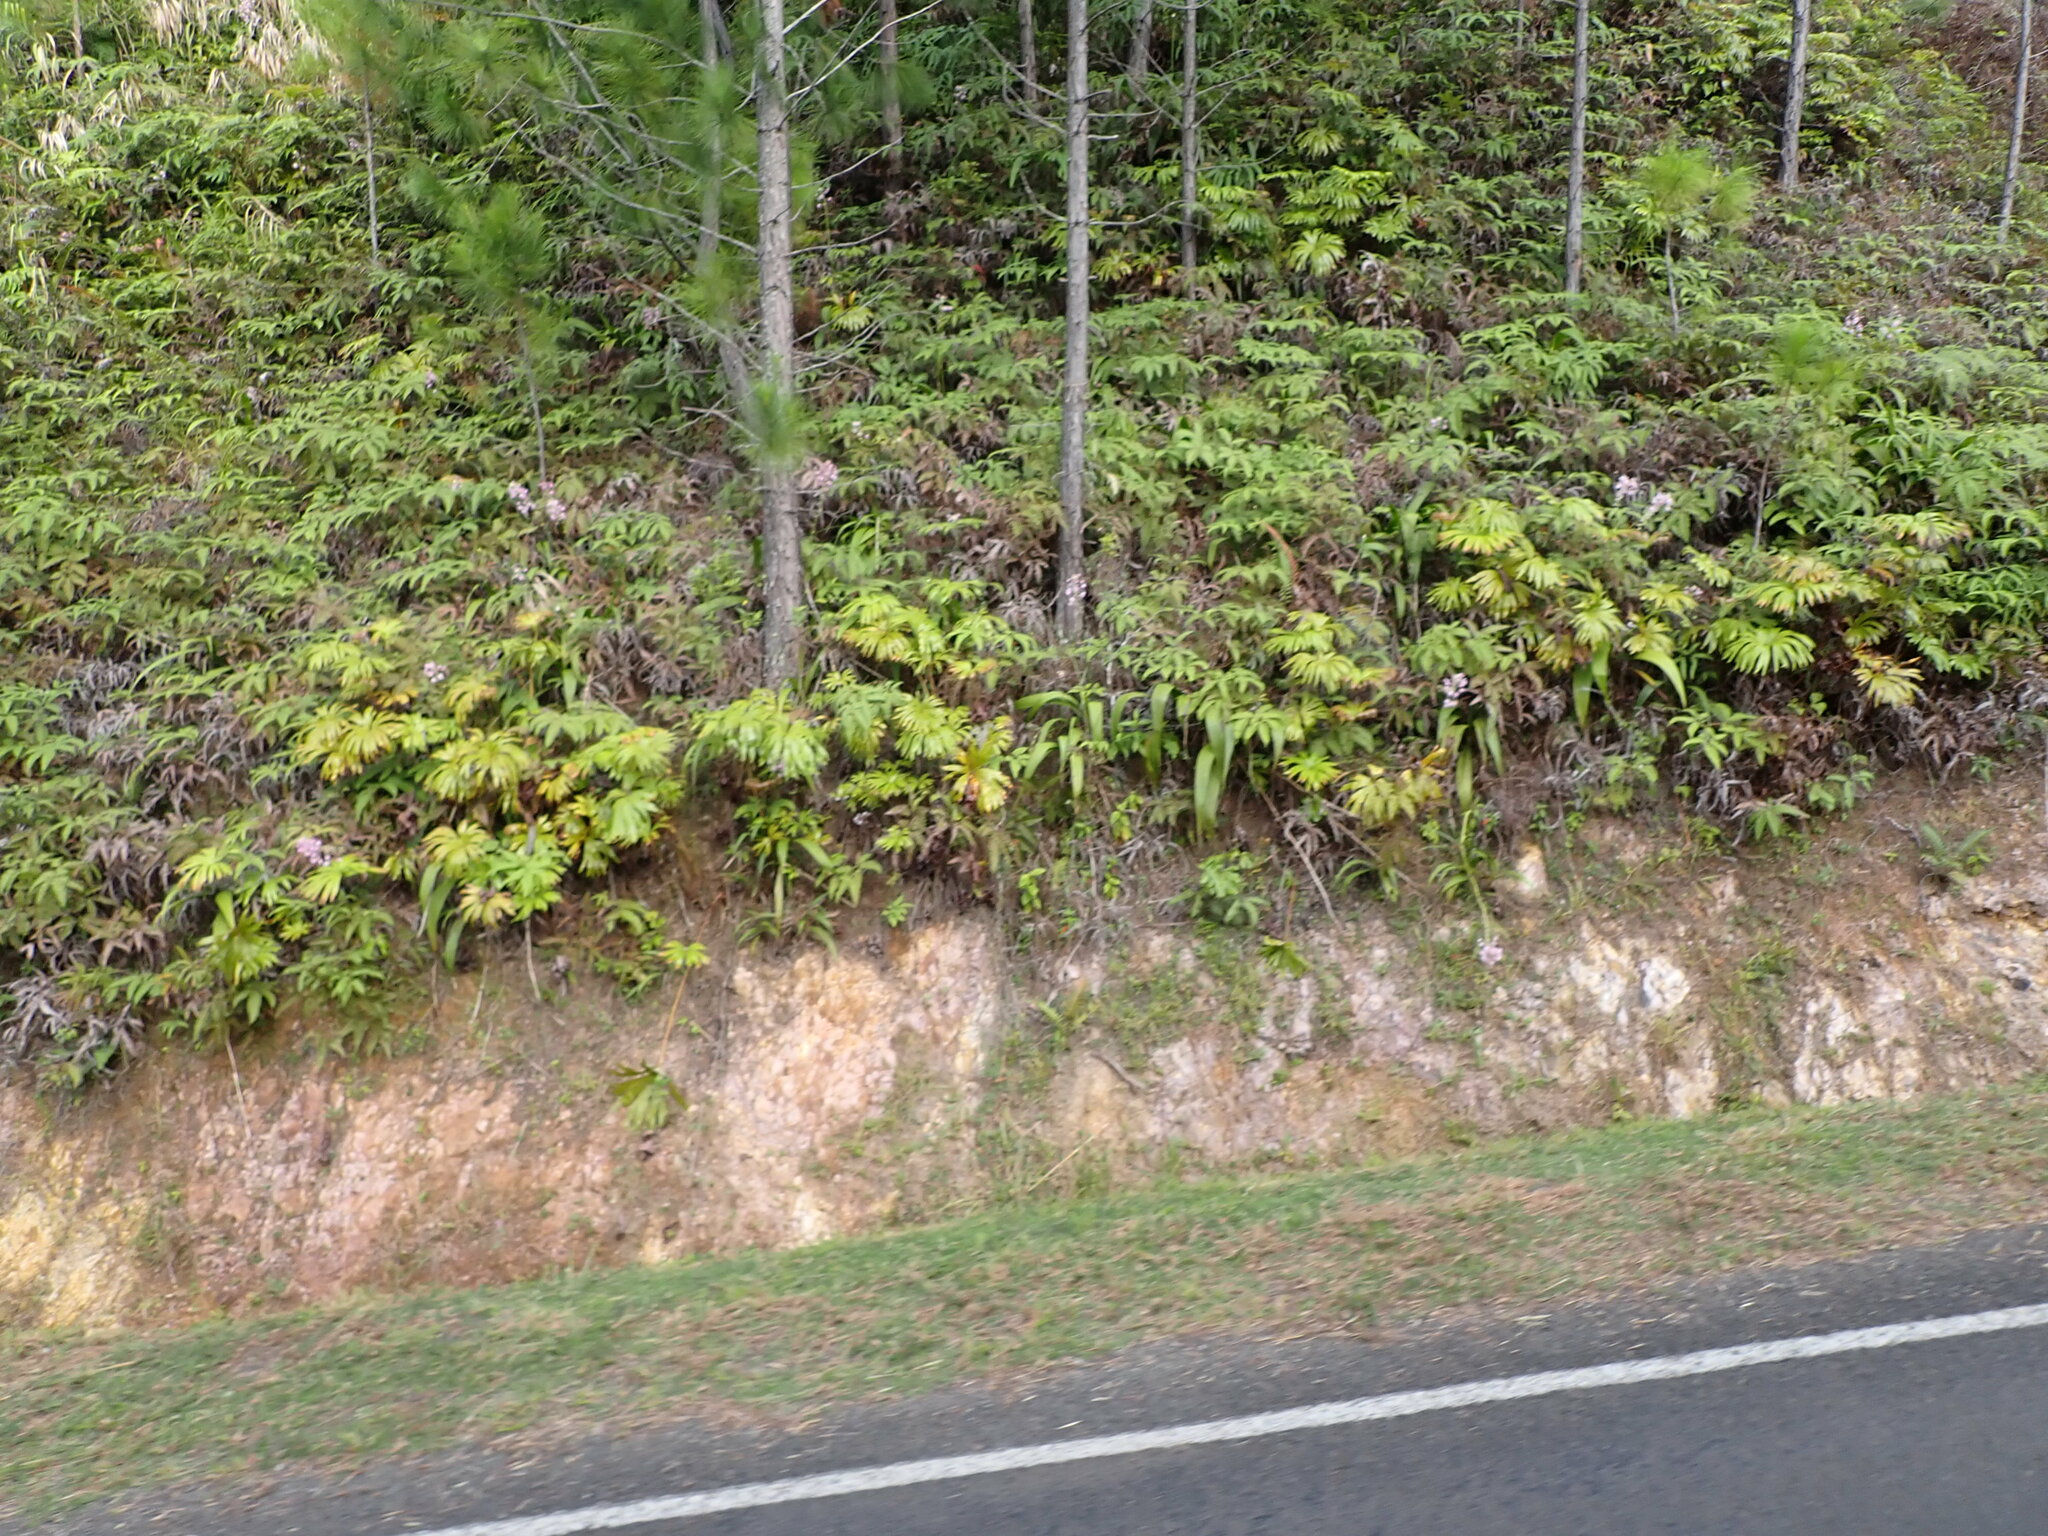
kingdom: Plantae
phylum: Tracheophyta
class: Polypodiopsida
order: Gleicheniales
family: Dipteridaceae
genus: Dipteris
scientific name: Dipteris conjugata
